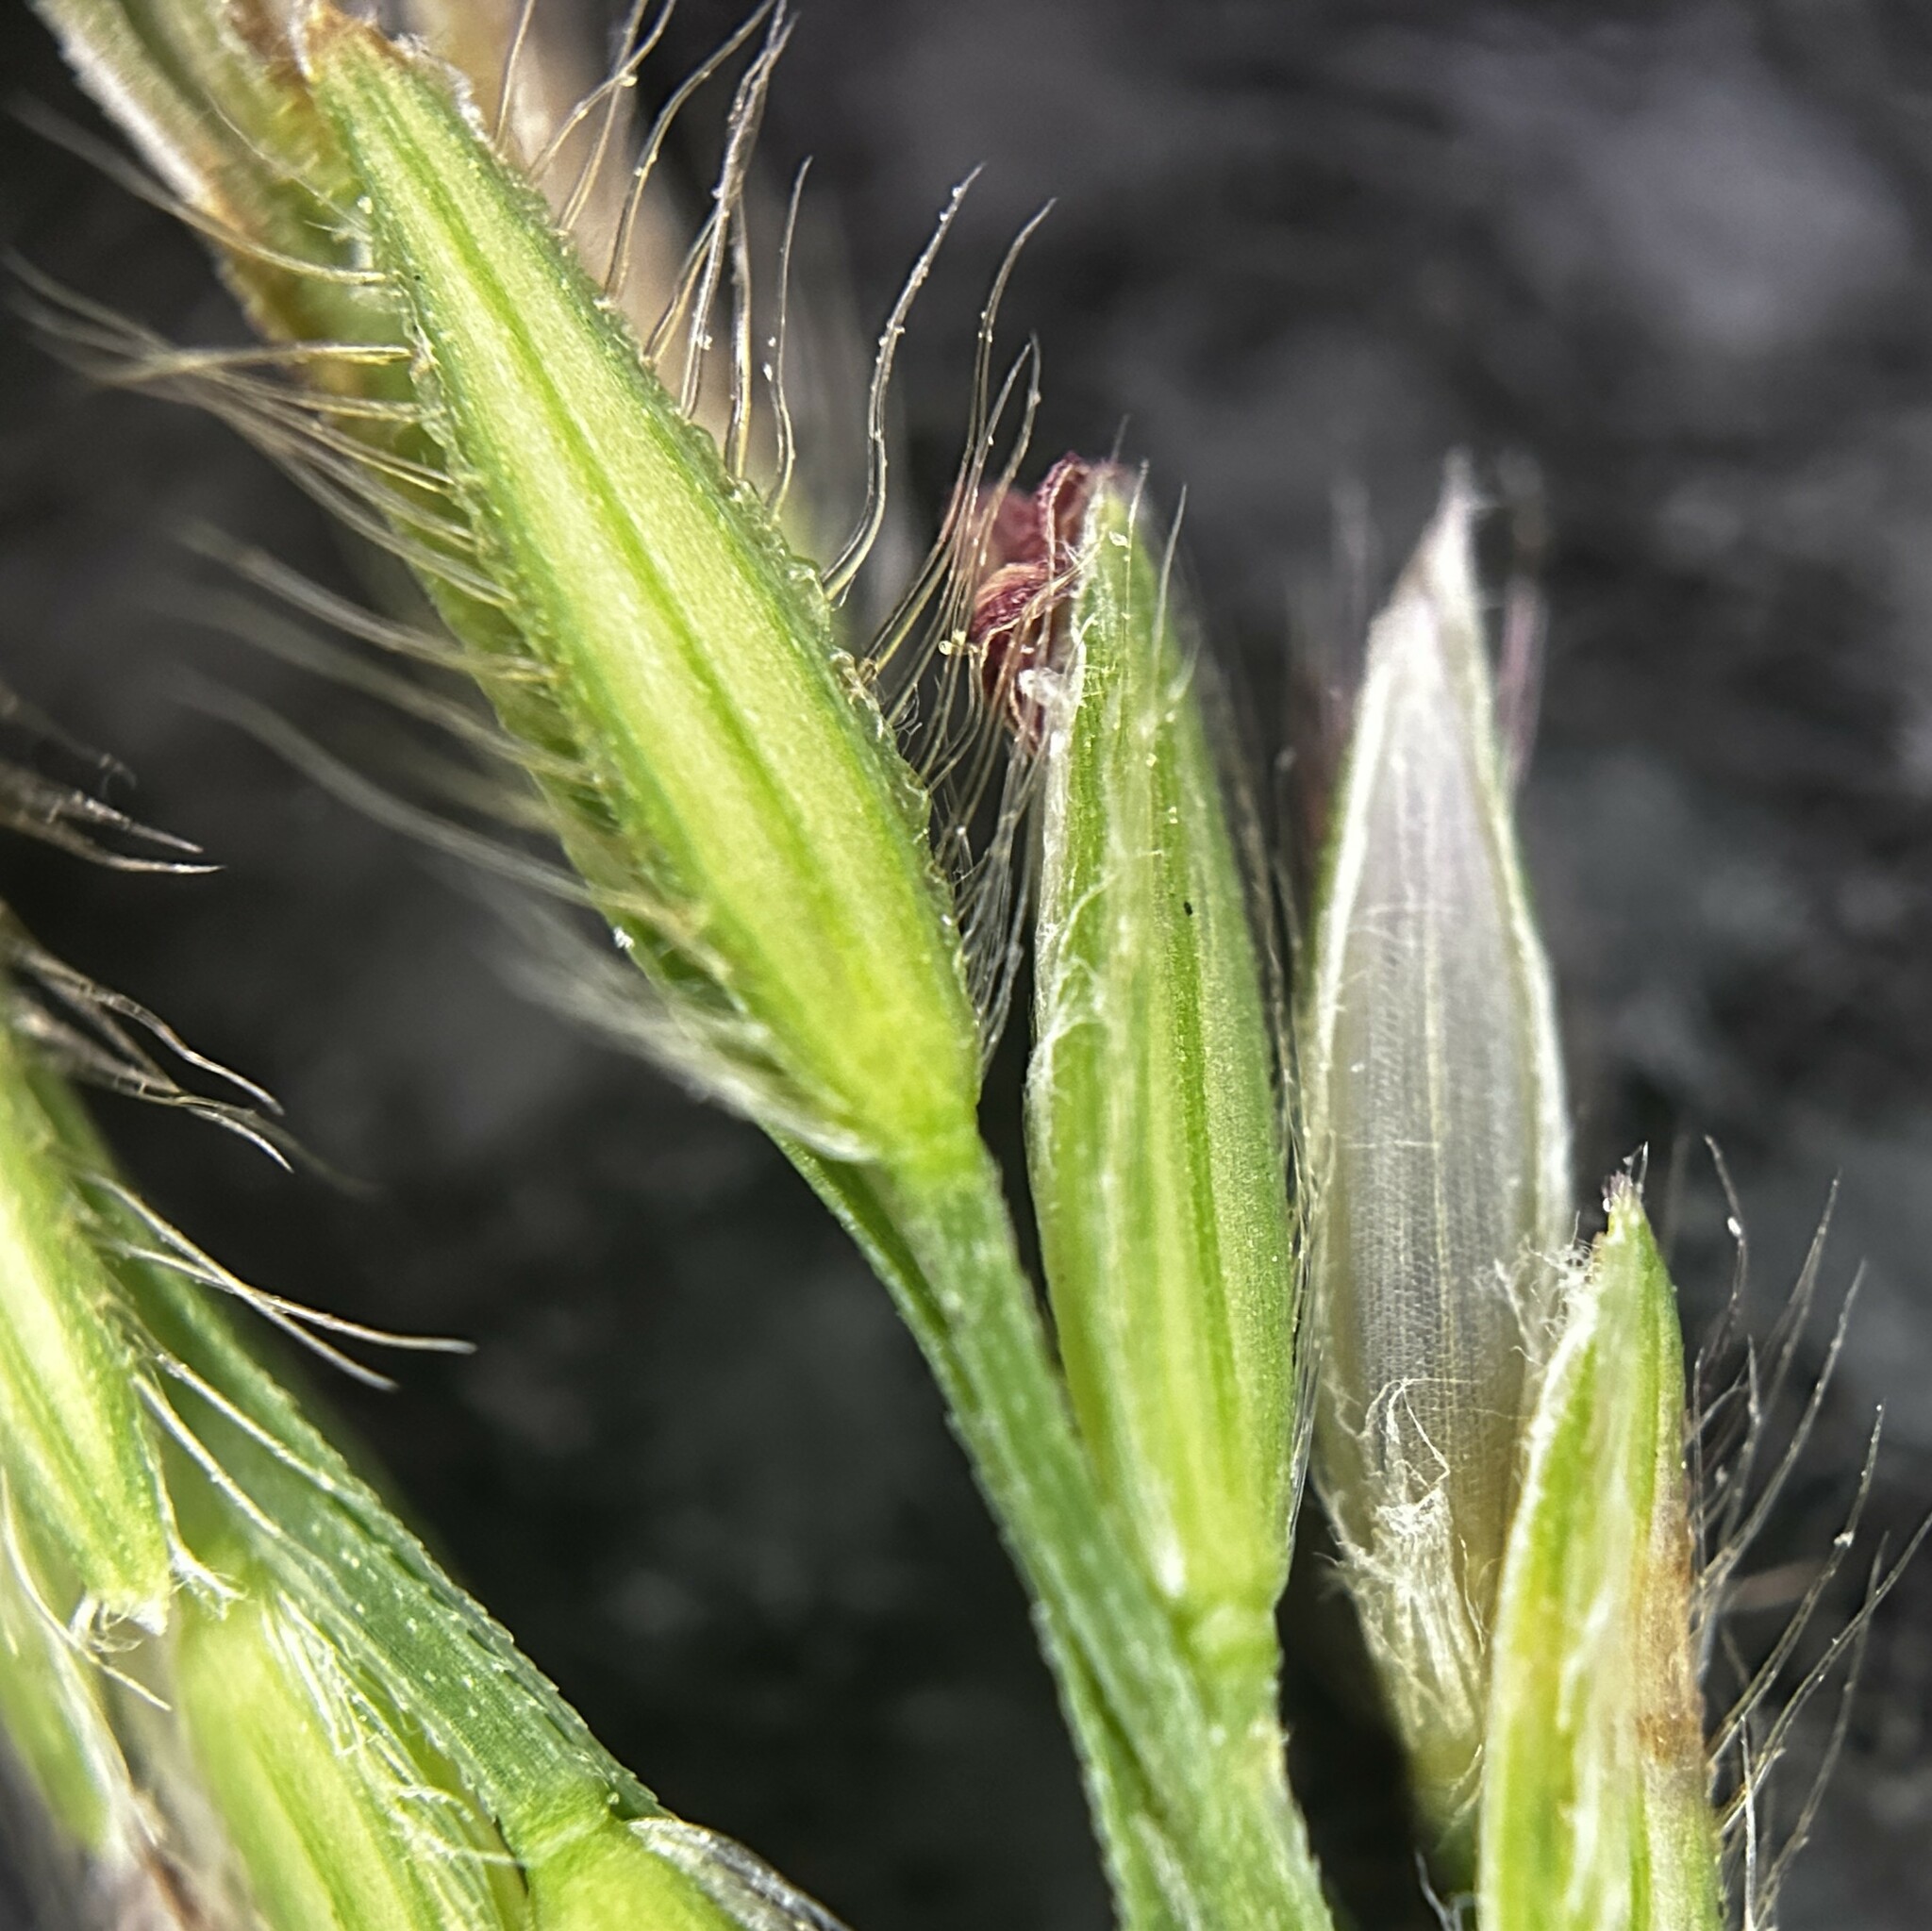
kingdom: Plantae
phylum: Tracheophyta
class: Liliopsida
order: Poales
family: Poaceae
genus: Digitaria
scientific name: Digitaria setigera
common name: East indian crabgrass
